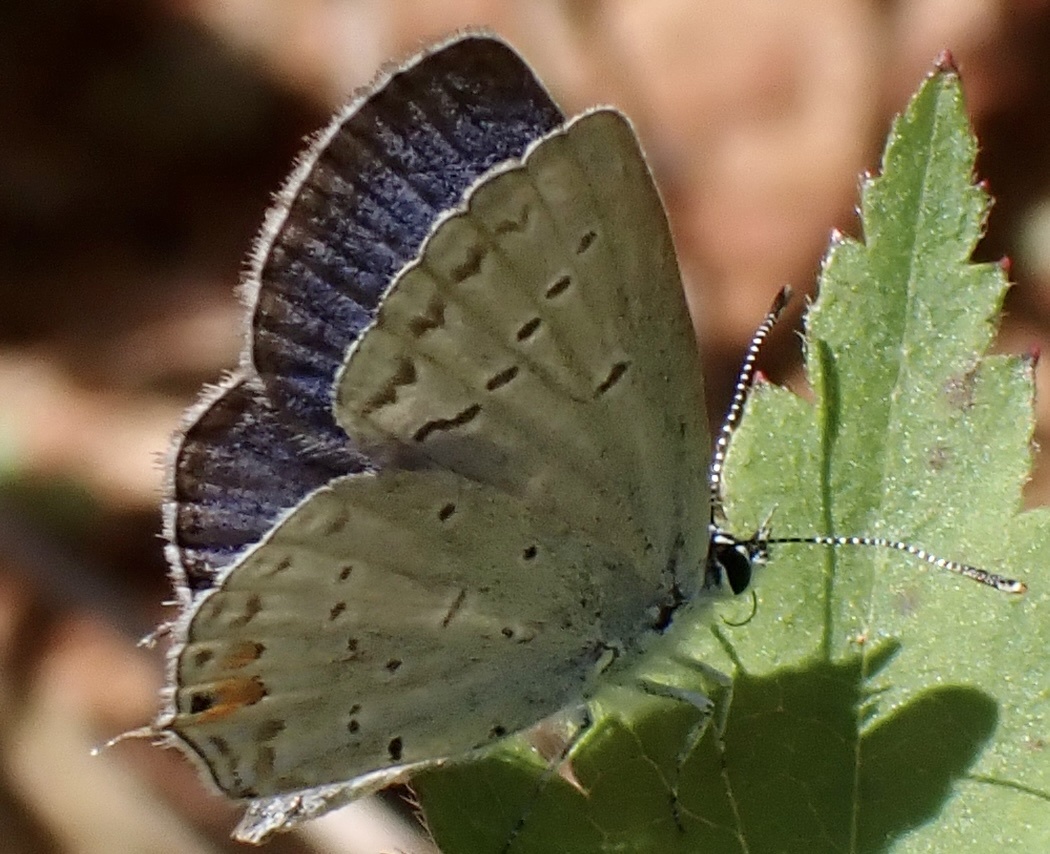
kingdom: Animalia
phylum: Arthropoda
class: Insecta
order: Lepidoptera
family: Lycaenidae
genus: Elkalyce
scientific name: Elkalyce comyntas
